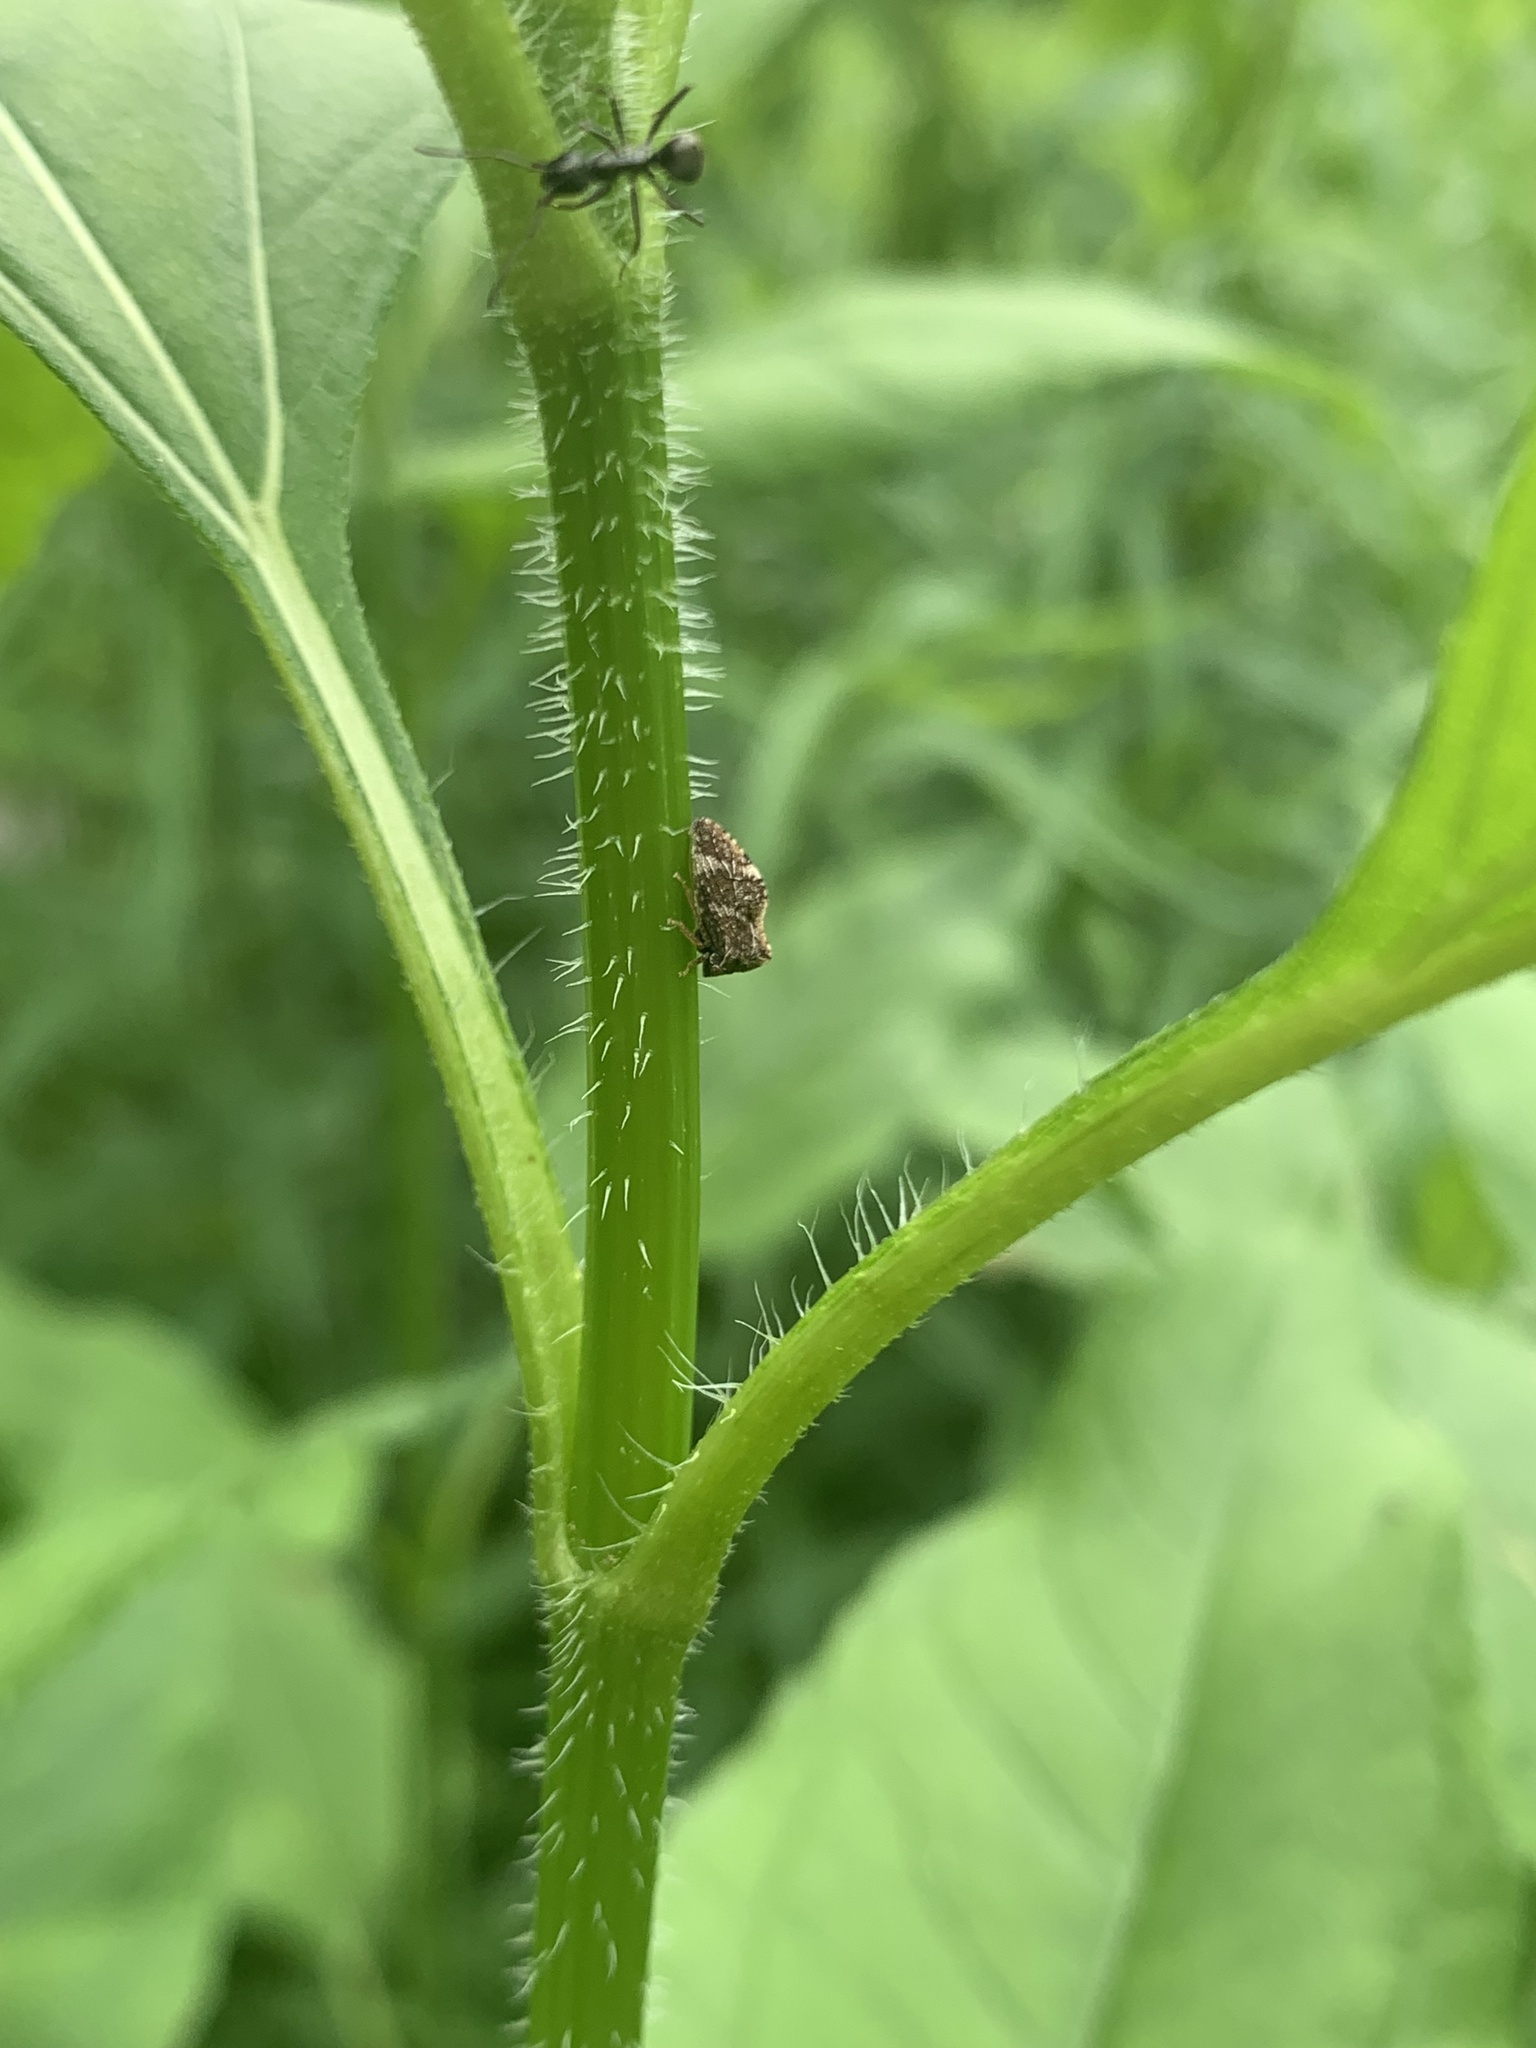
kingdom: Animalia
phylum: Arthropoda
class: Insecta
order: Hemiptera
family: Membracidae
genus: Publilia
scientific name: Publilia concava
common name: Aster treehopper
